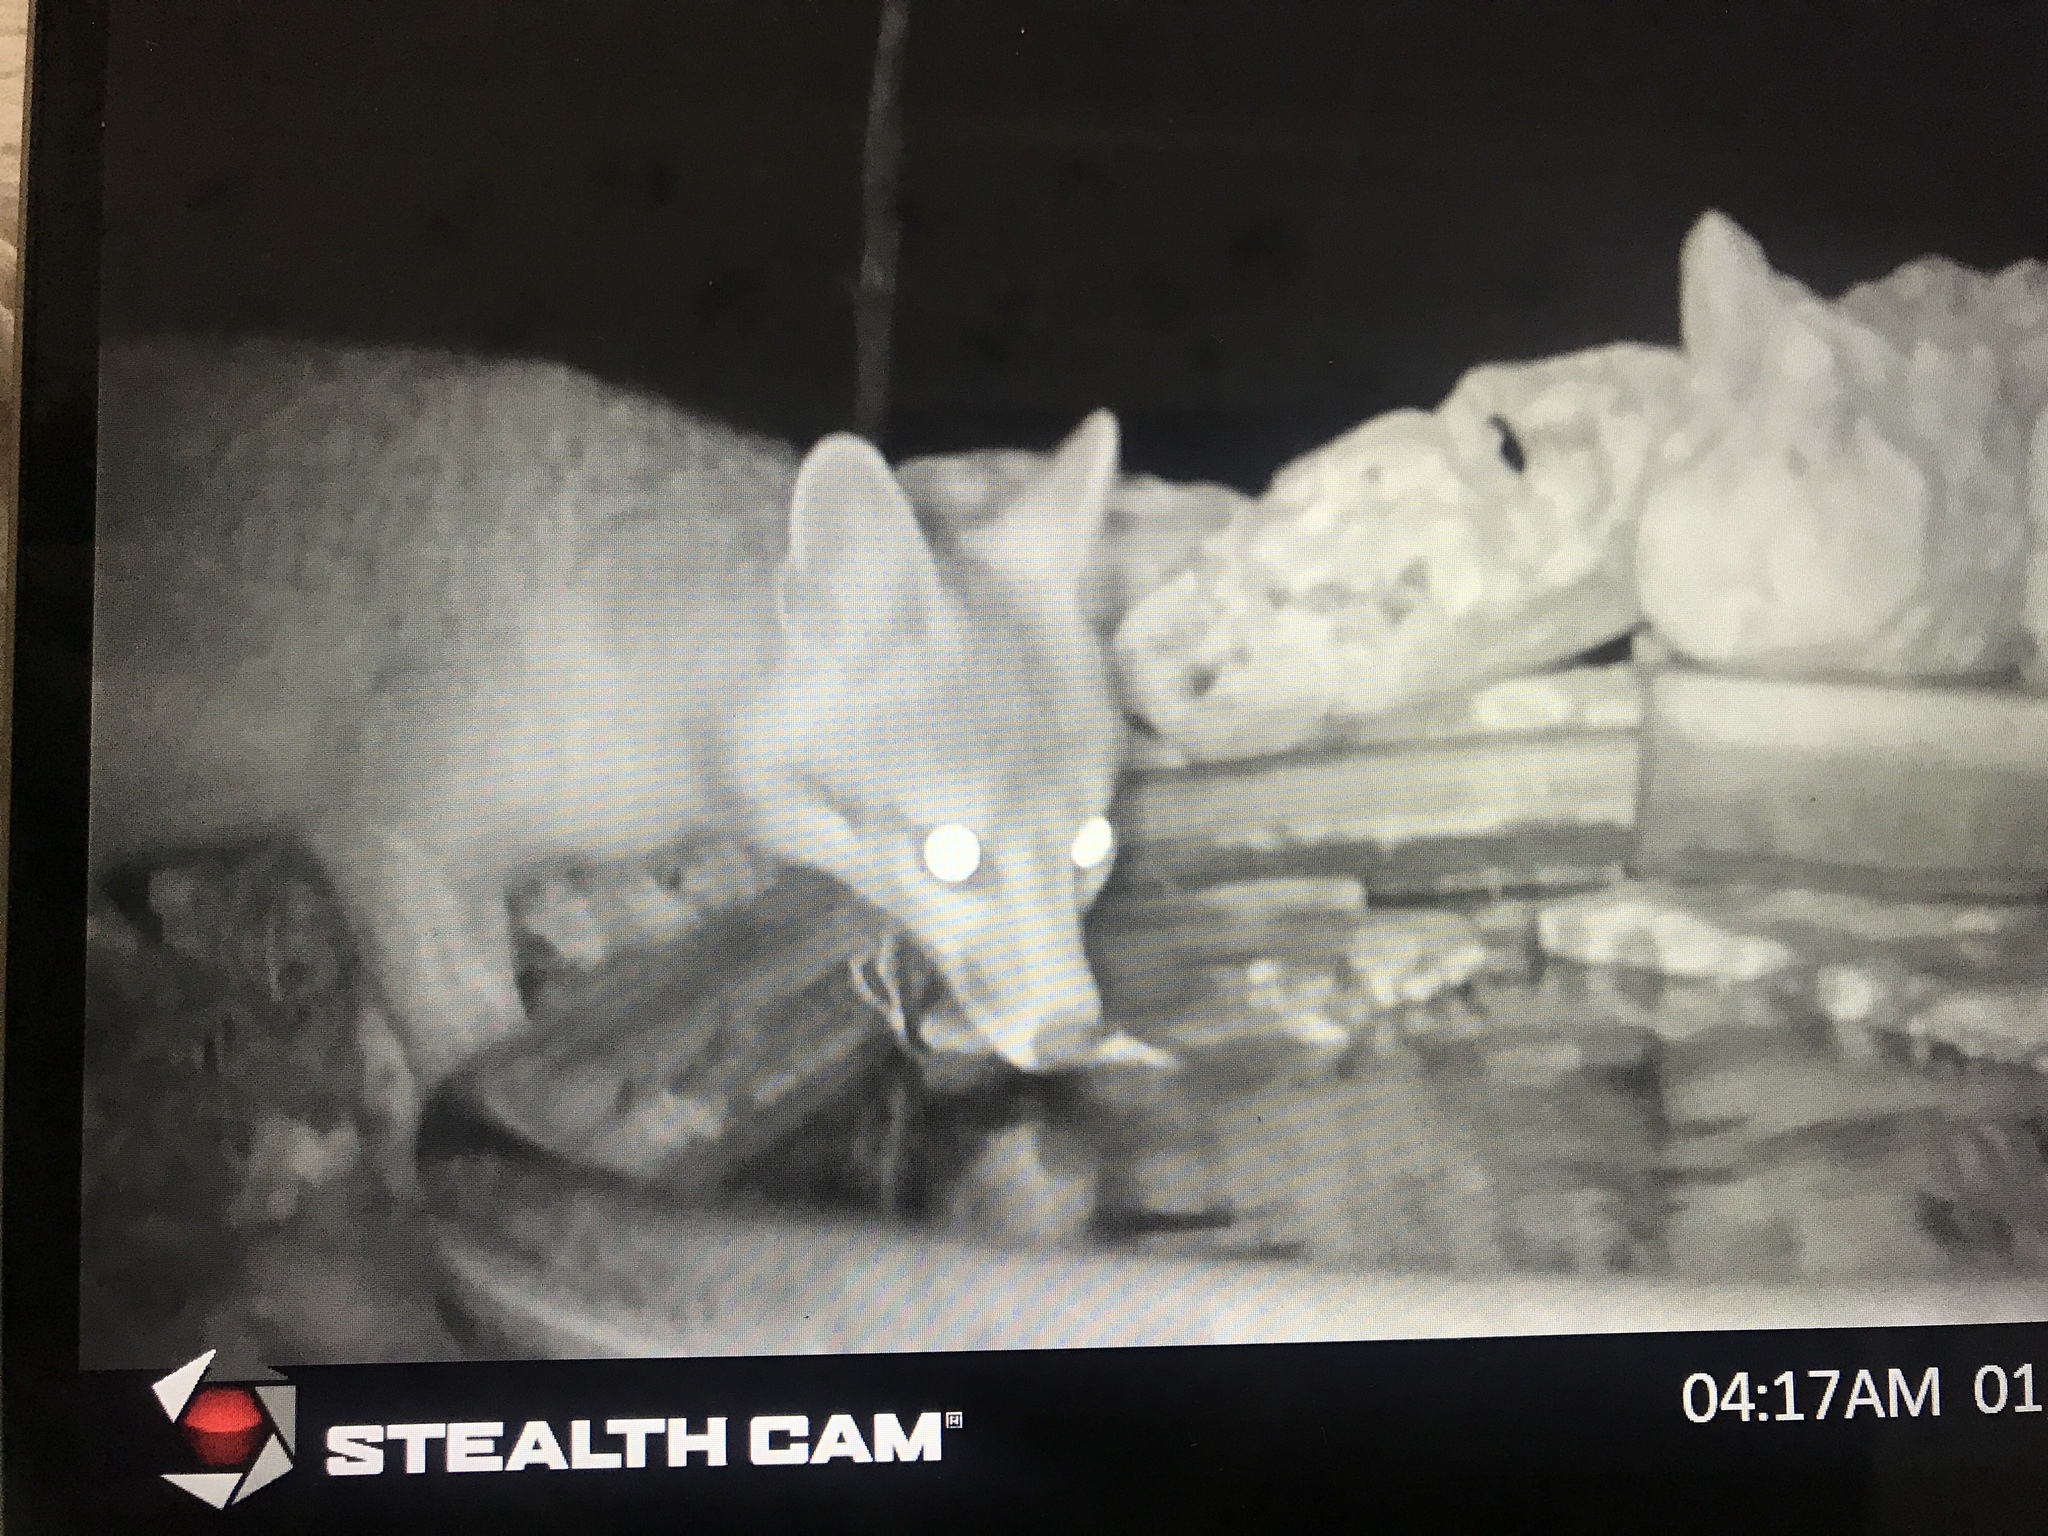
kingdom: Animalia
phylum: Chordata
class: Mammalia
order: Carnivora
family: Canidae
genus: Urocyon
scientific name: Urocyon cinereoargenteus
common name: Gray fox
